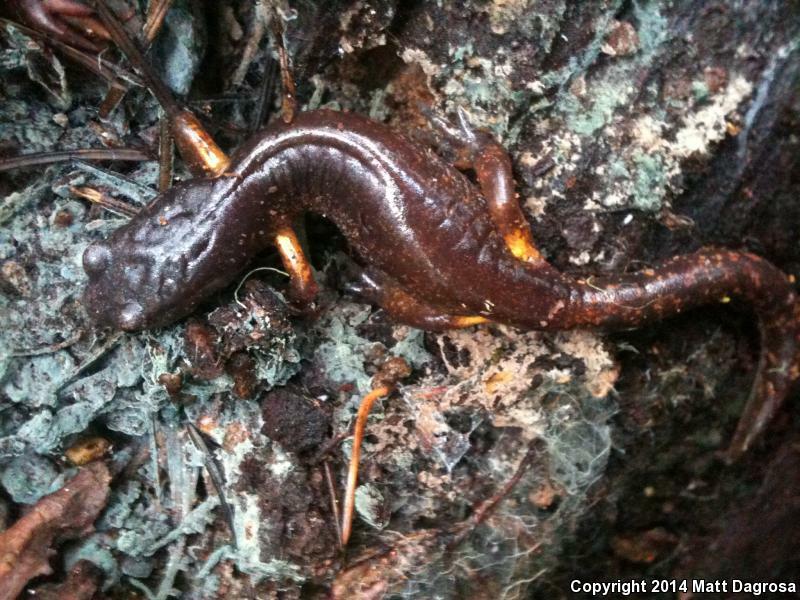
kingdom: Animalia
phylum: Chordata
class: Amphibia
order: Caudata
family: Plethodontidae
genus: Ensatina
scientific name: Ensatina eschscholtzii
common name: Ensatina
